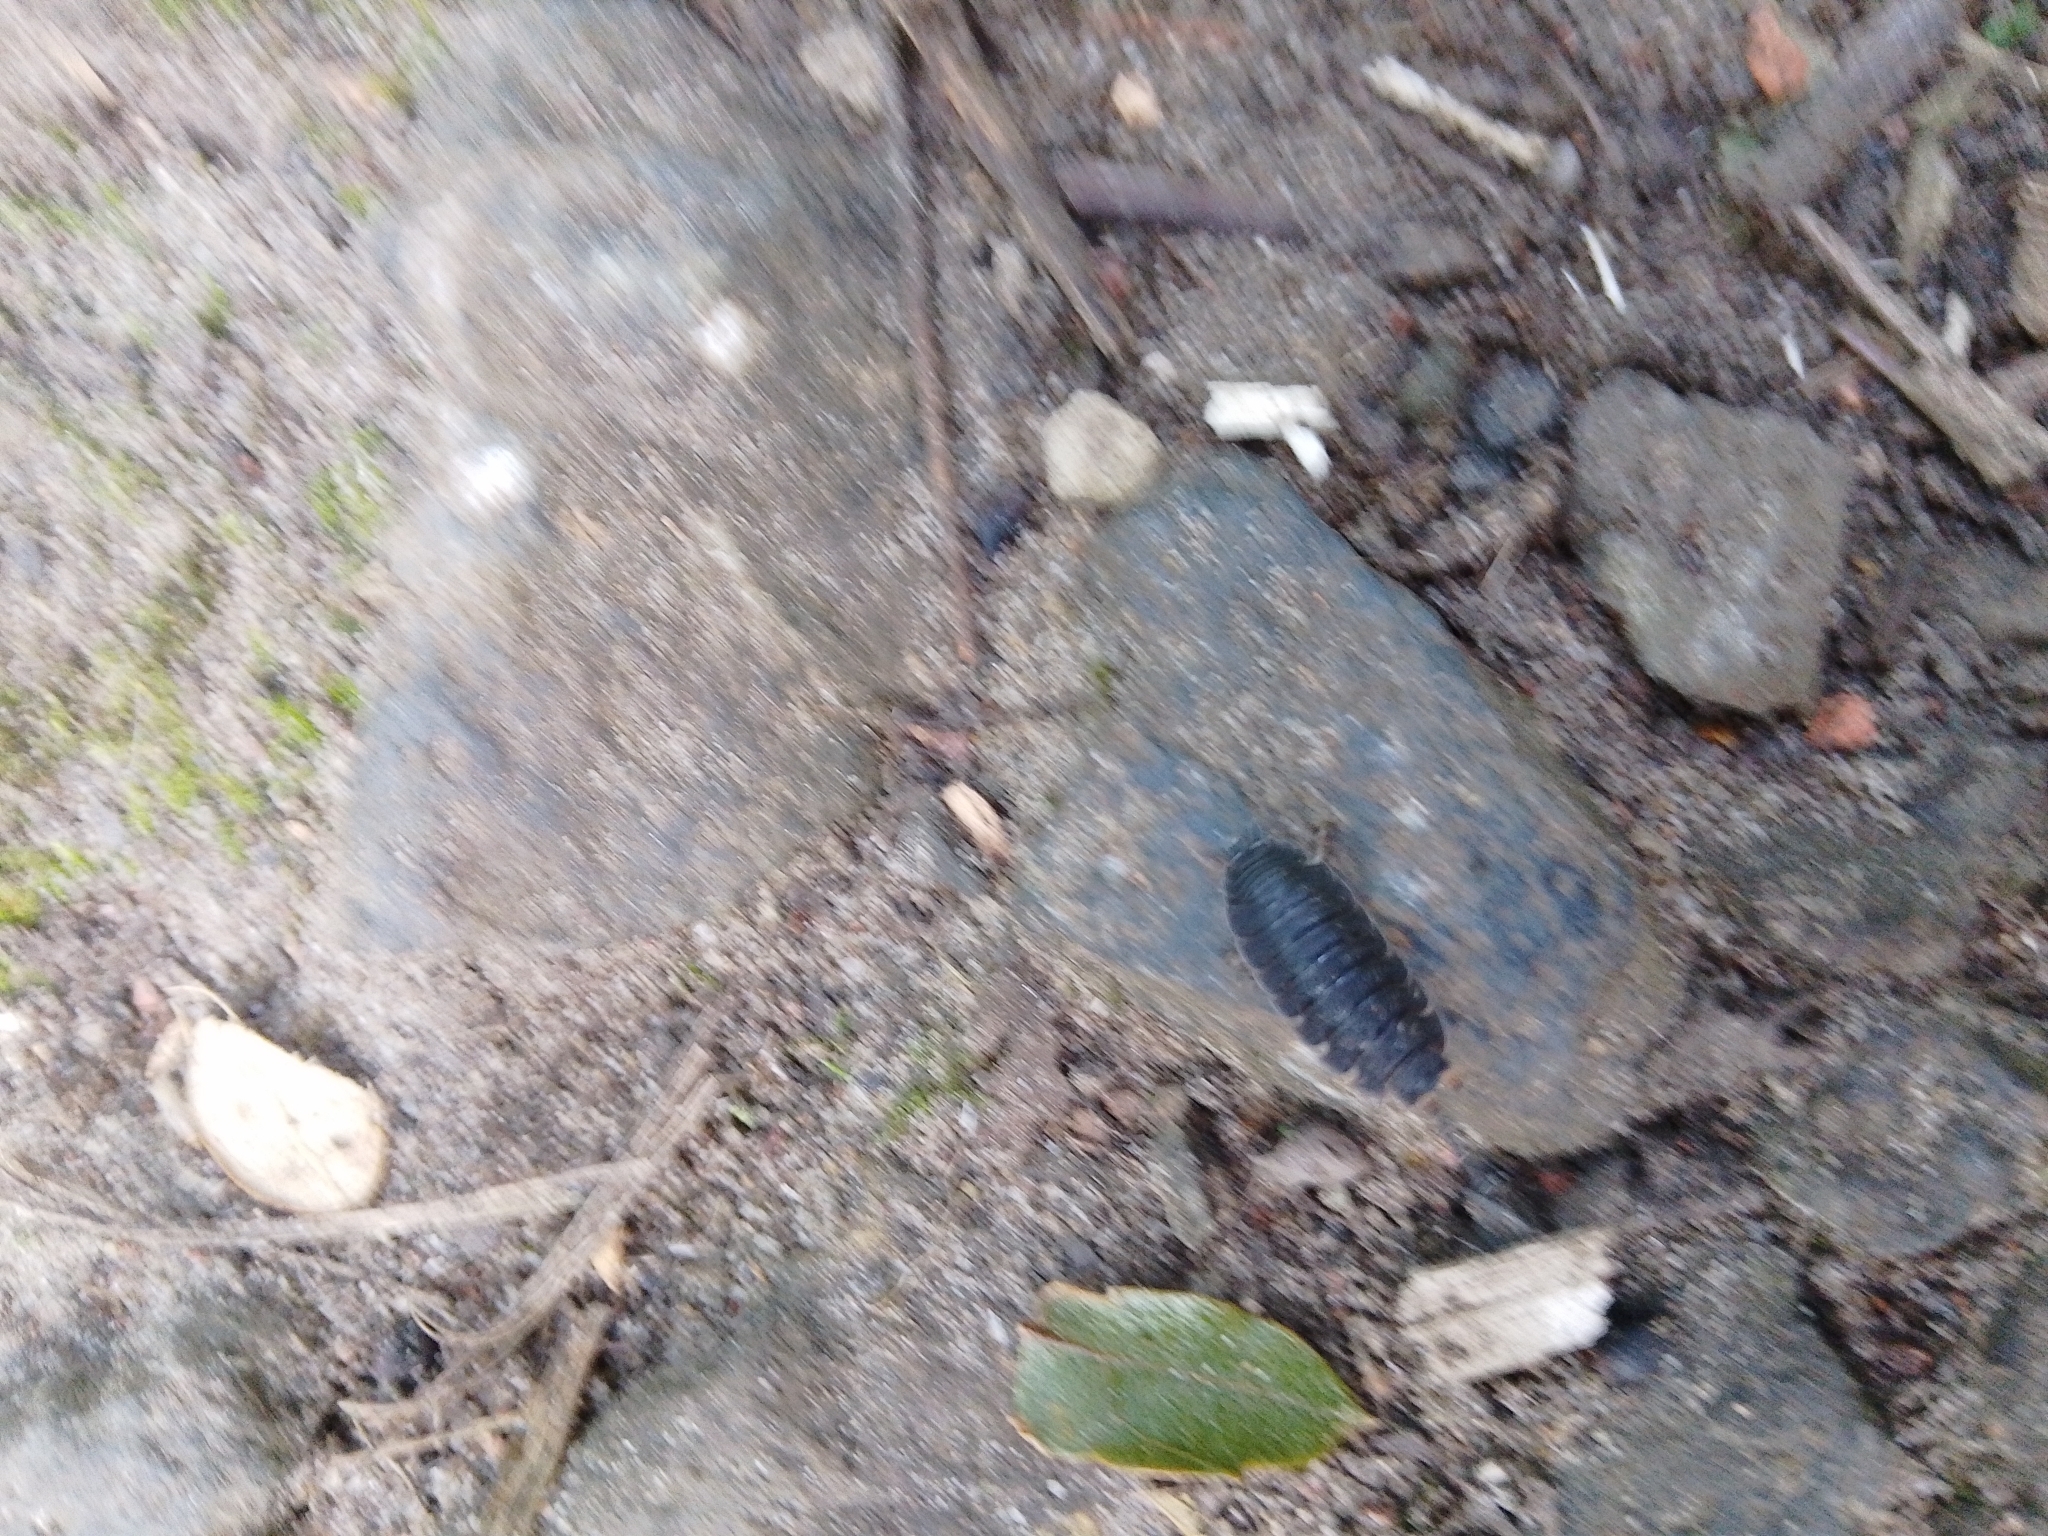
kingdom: Animalia
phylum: Arthropoda
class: Malacostraca
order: Isopoda
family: Porcellionidae
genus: Porcellio
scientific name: Porcellio scaber
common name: Common rough woodlouse
